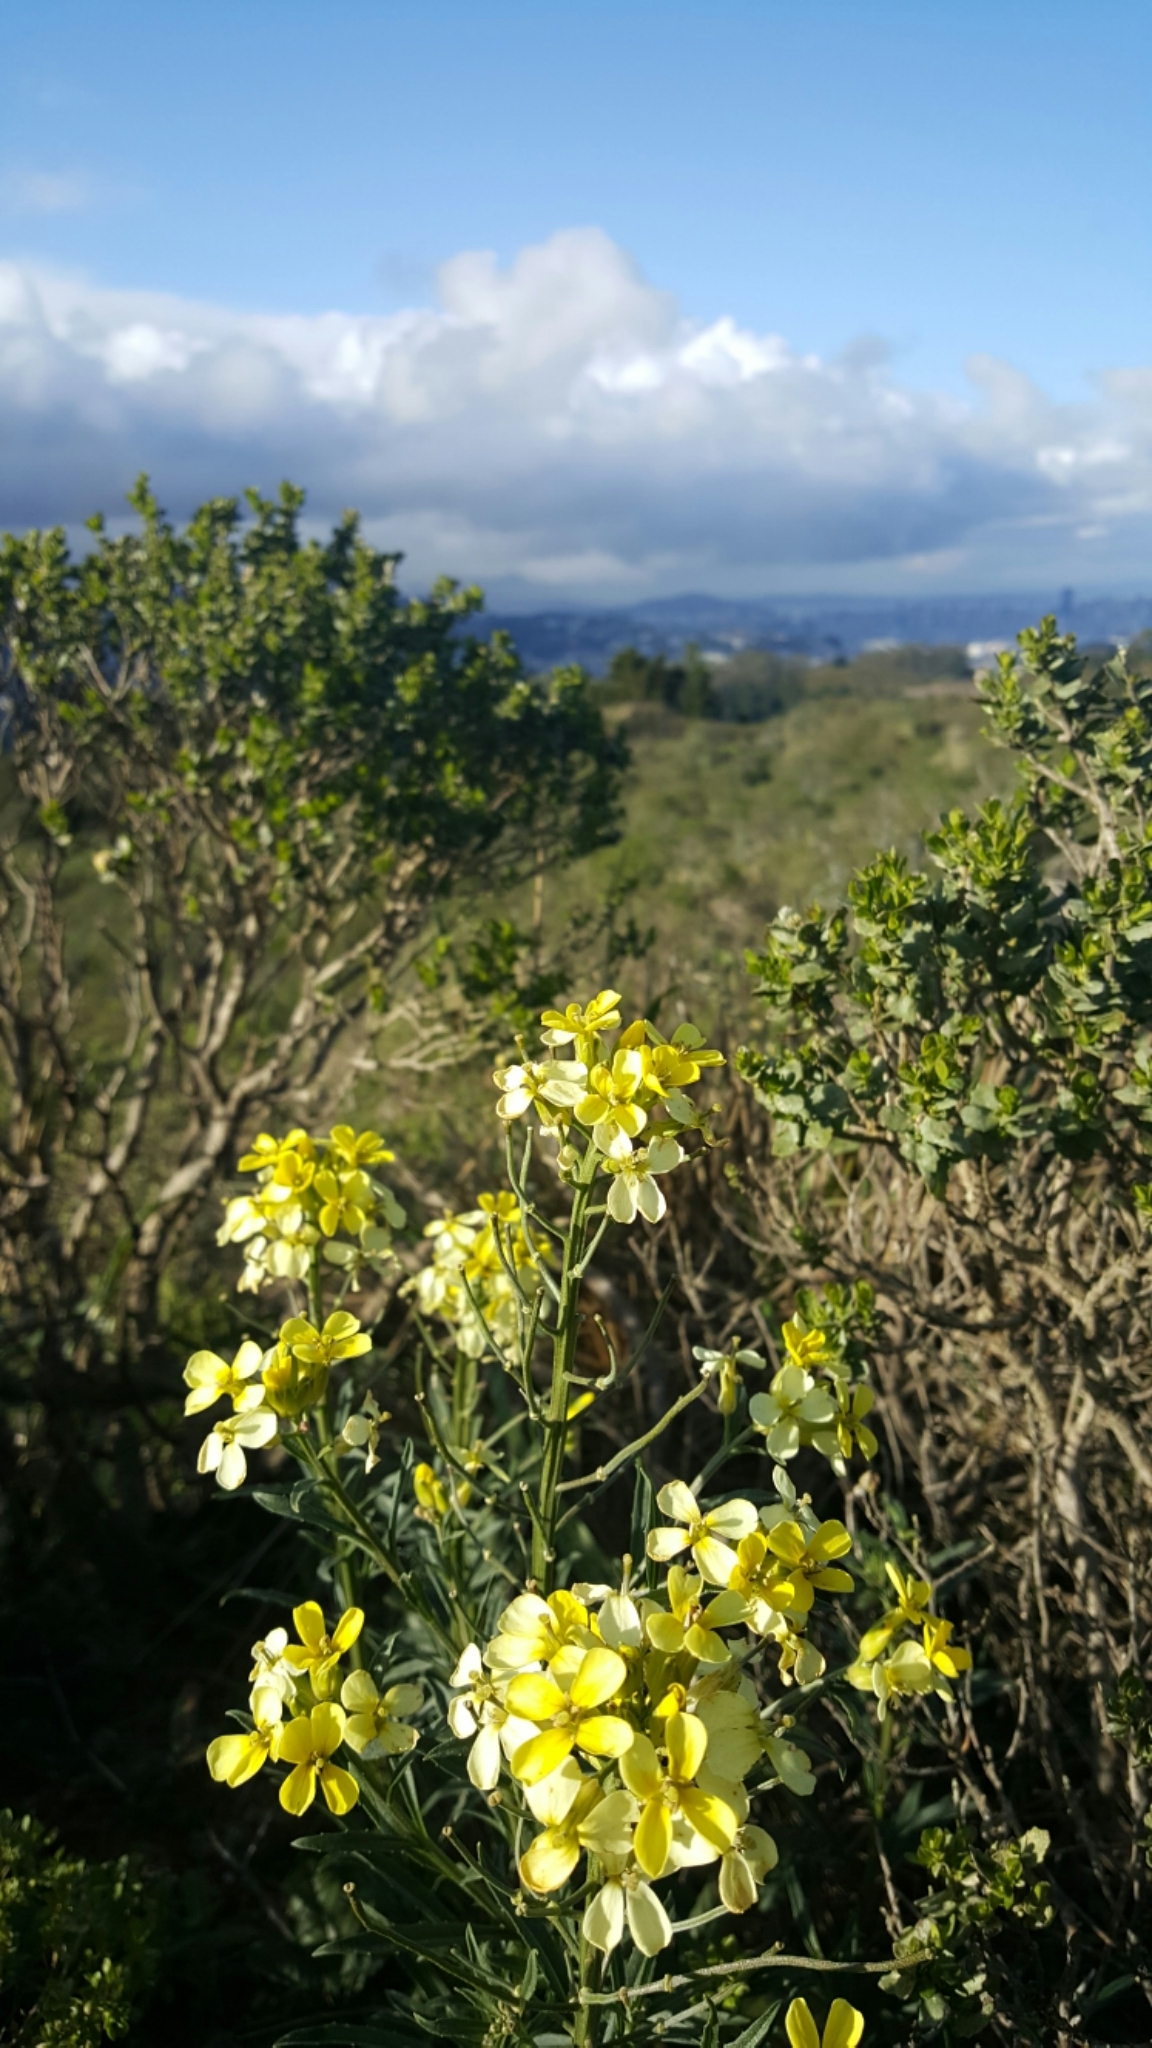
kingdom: Plantae
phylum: Tracheophyta
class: Magnoliopsida
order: Brassicales
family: Brassicaceae
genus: Erysimum
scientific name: Erysimum franciscanum
